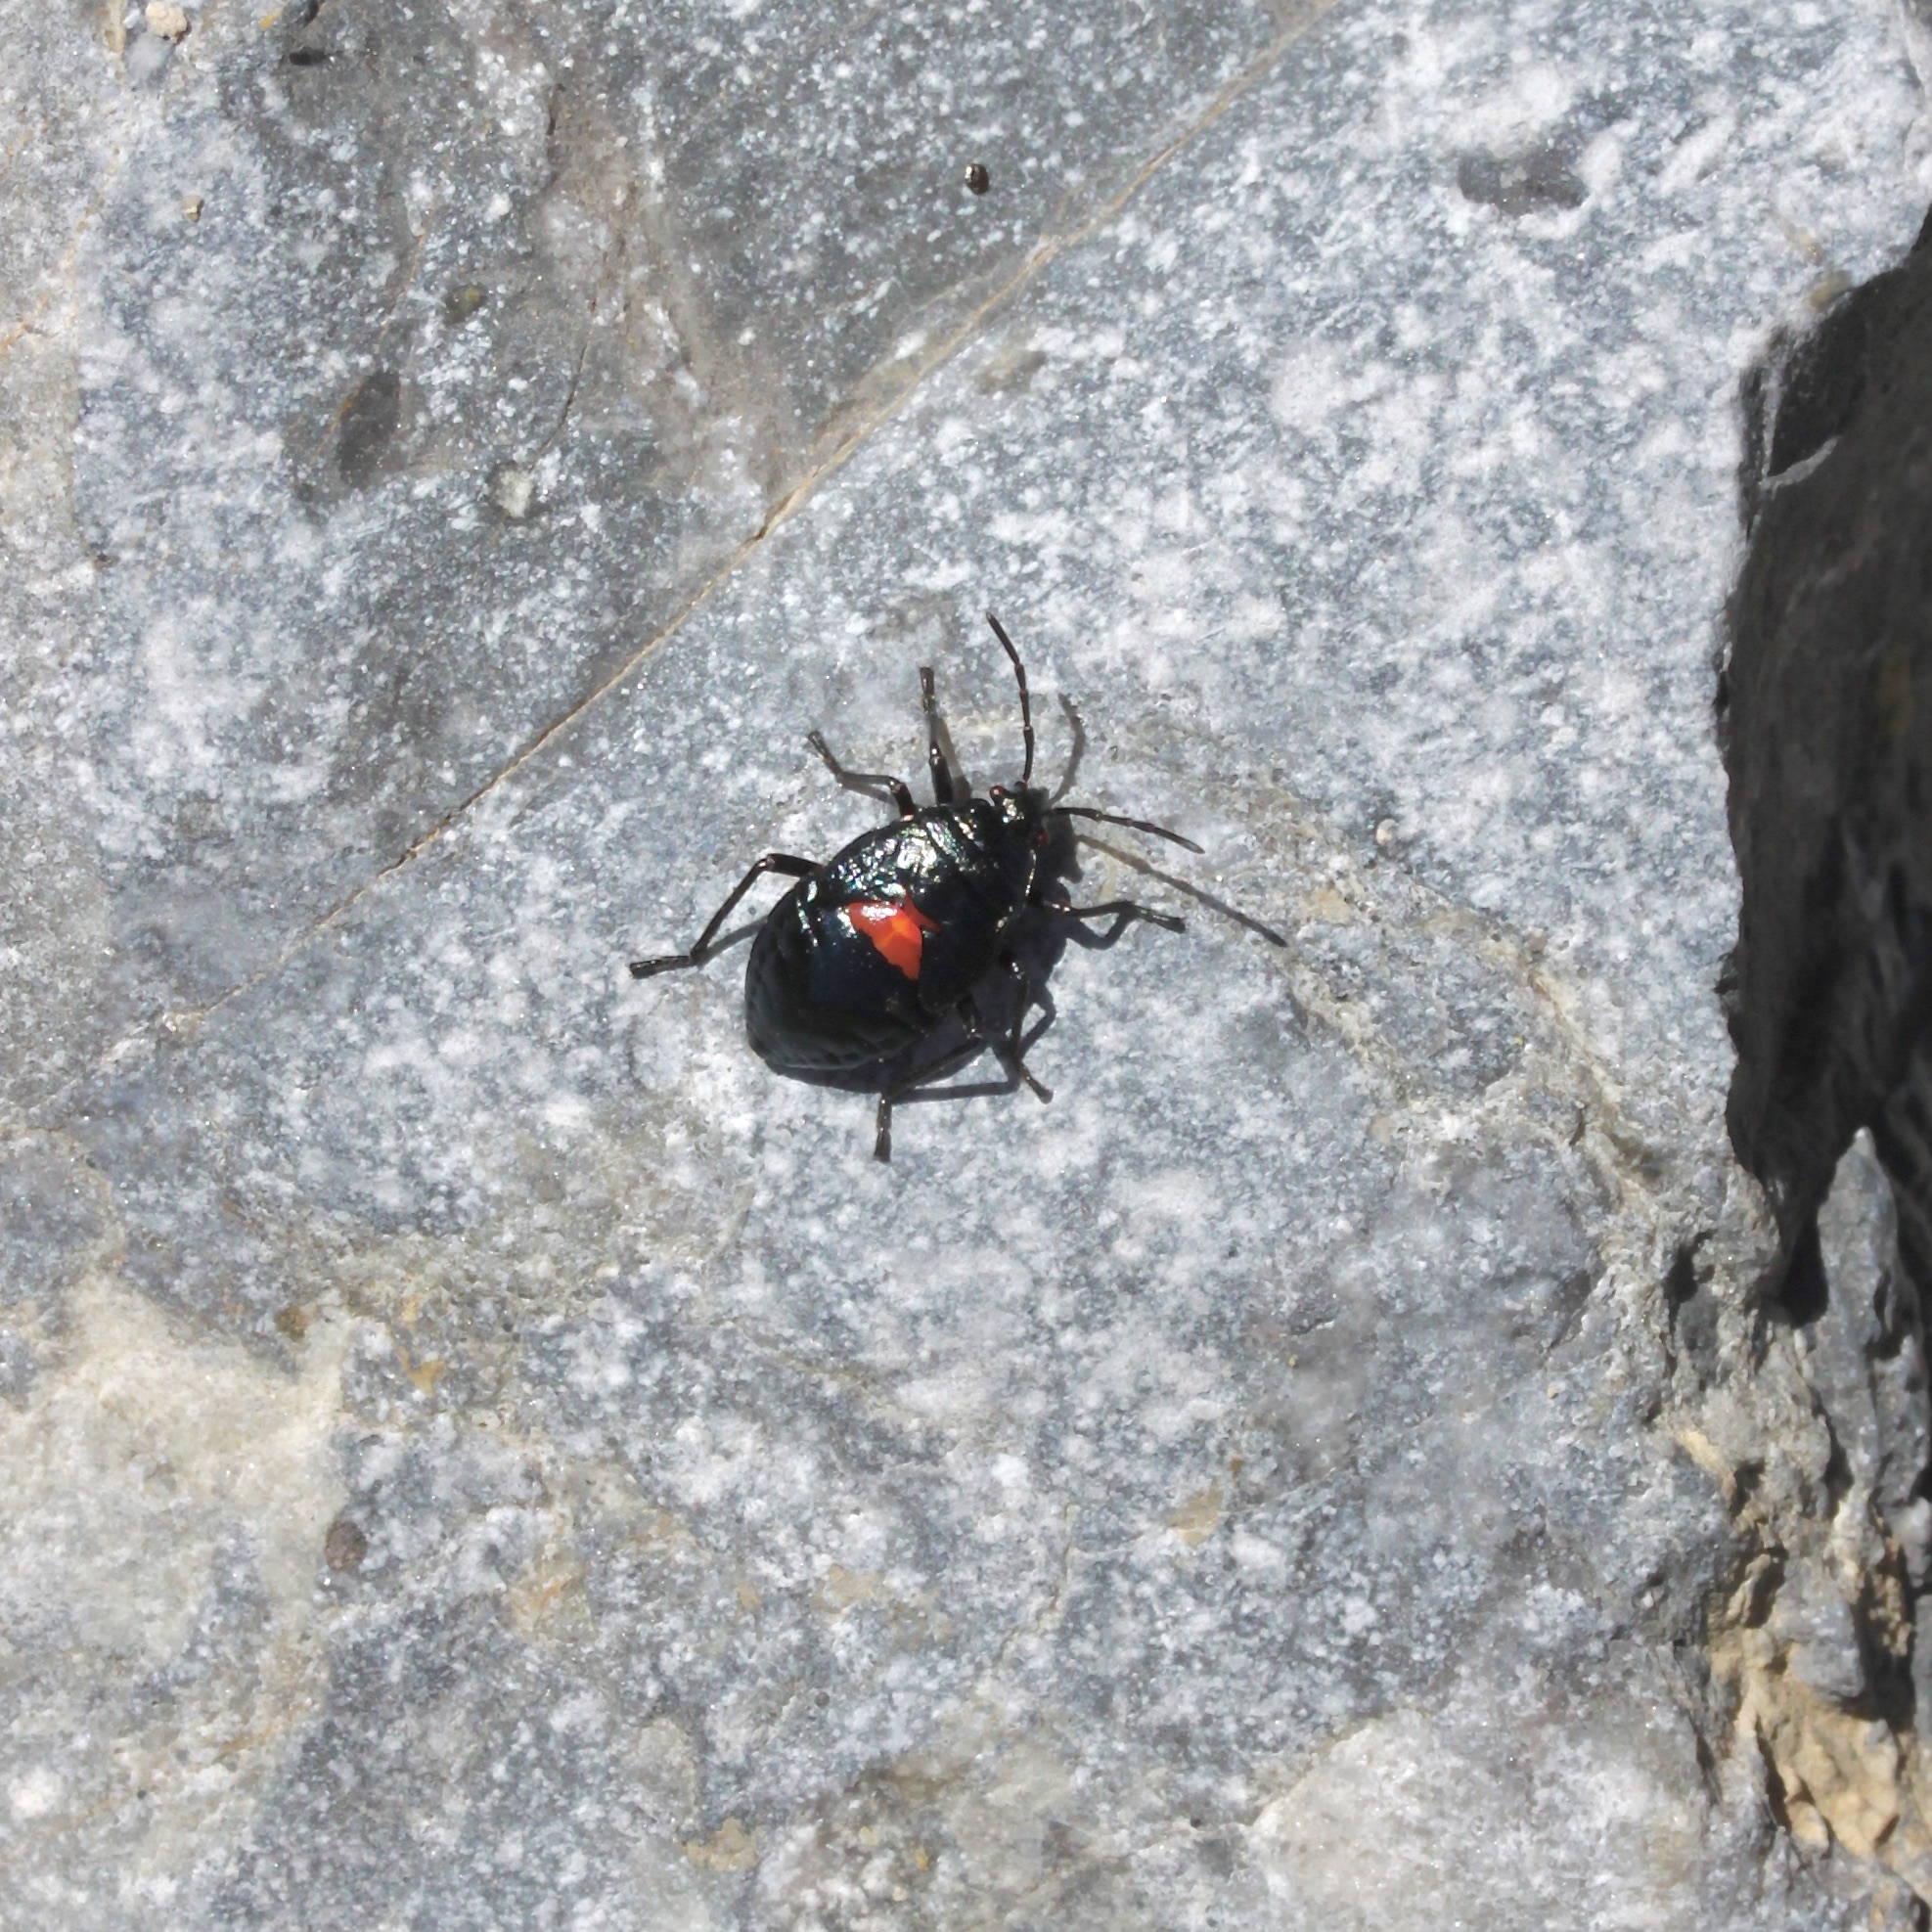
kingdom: Animalia
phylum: Arthropoda
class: Insecta
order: Hemiptera
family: Largidae
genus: Largus
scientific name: Largus californicus
